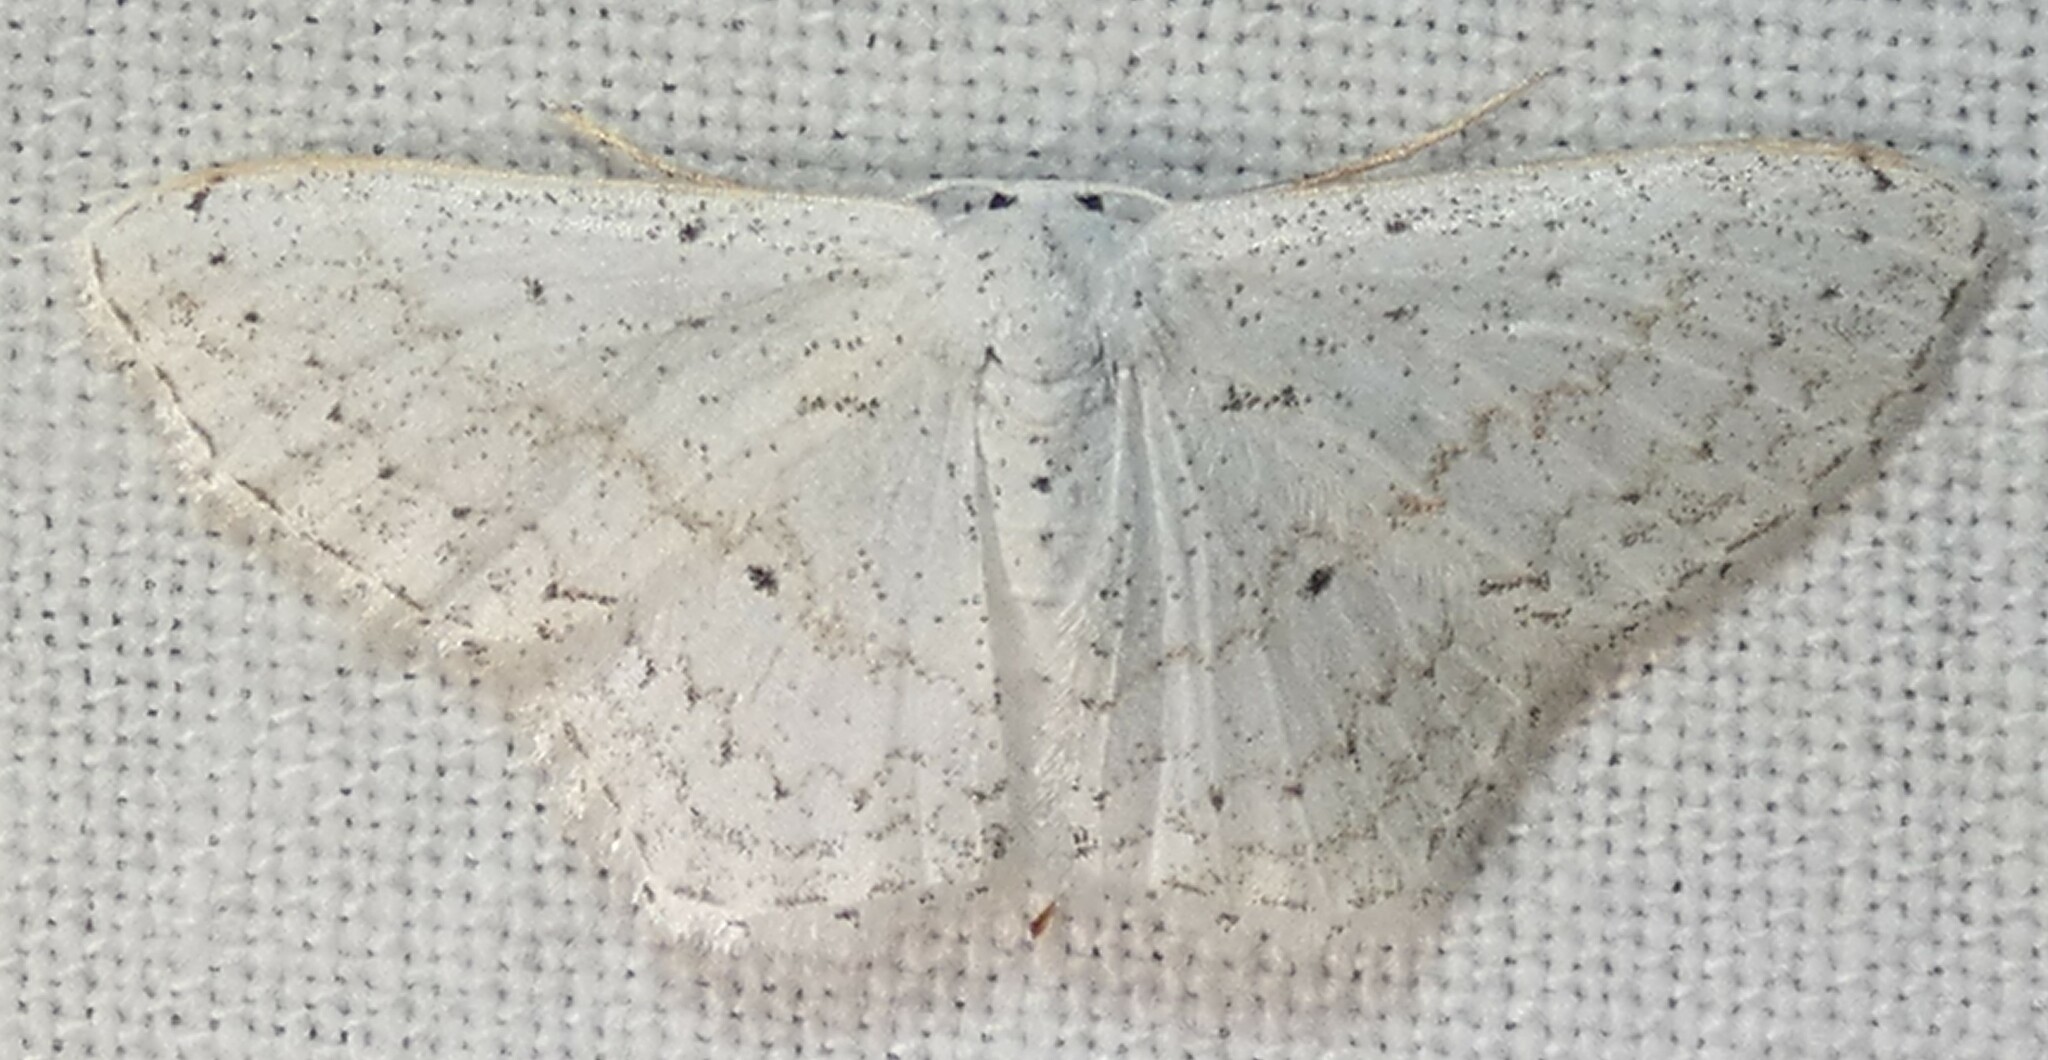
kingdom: Animalia
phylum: Arthropoda
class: Insecta
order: Lepidoptera
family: Geometridae
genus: Idaea
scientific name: Idaea tacturata
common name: Dot-lined wave
